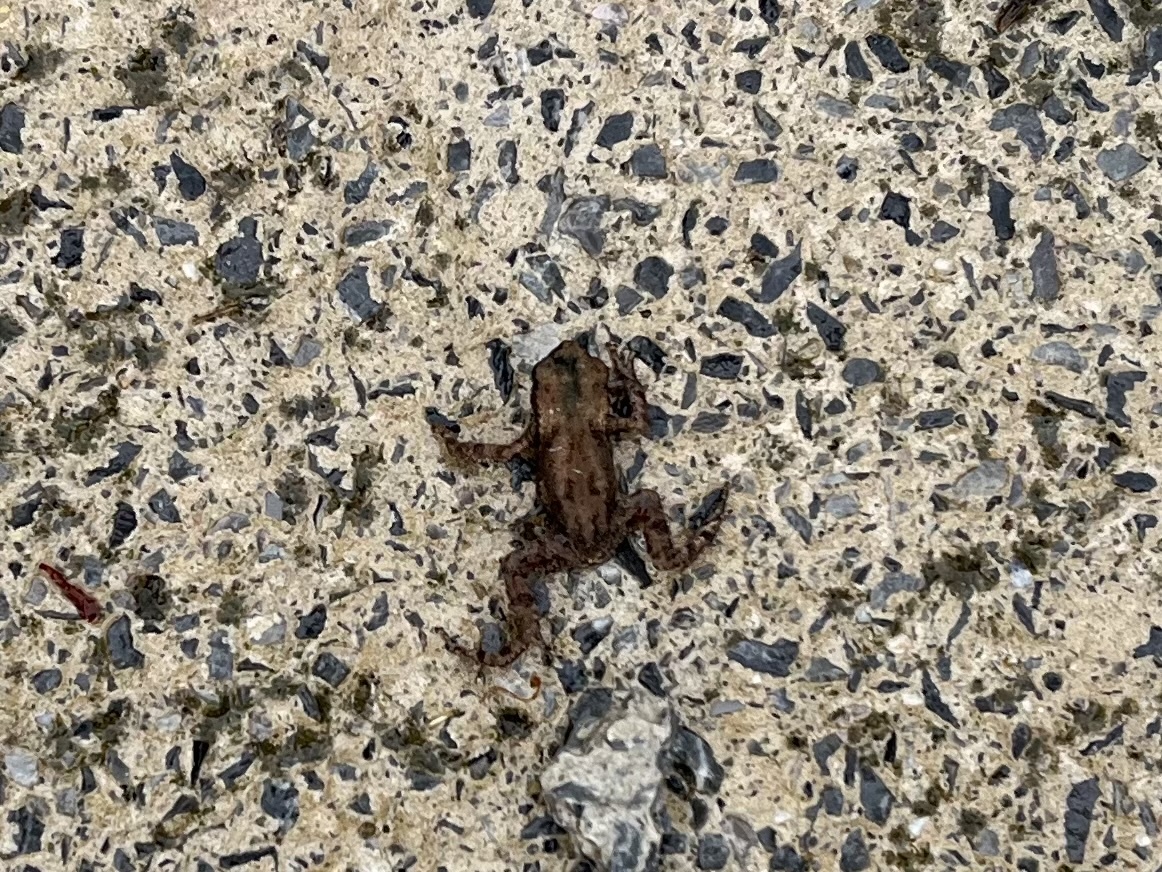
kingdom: Animalia
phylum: Chordata
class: Amphibia
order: Anura
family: Bufonidae
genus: Bufo
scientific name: Bufo bufo
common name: Common toad
